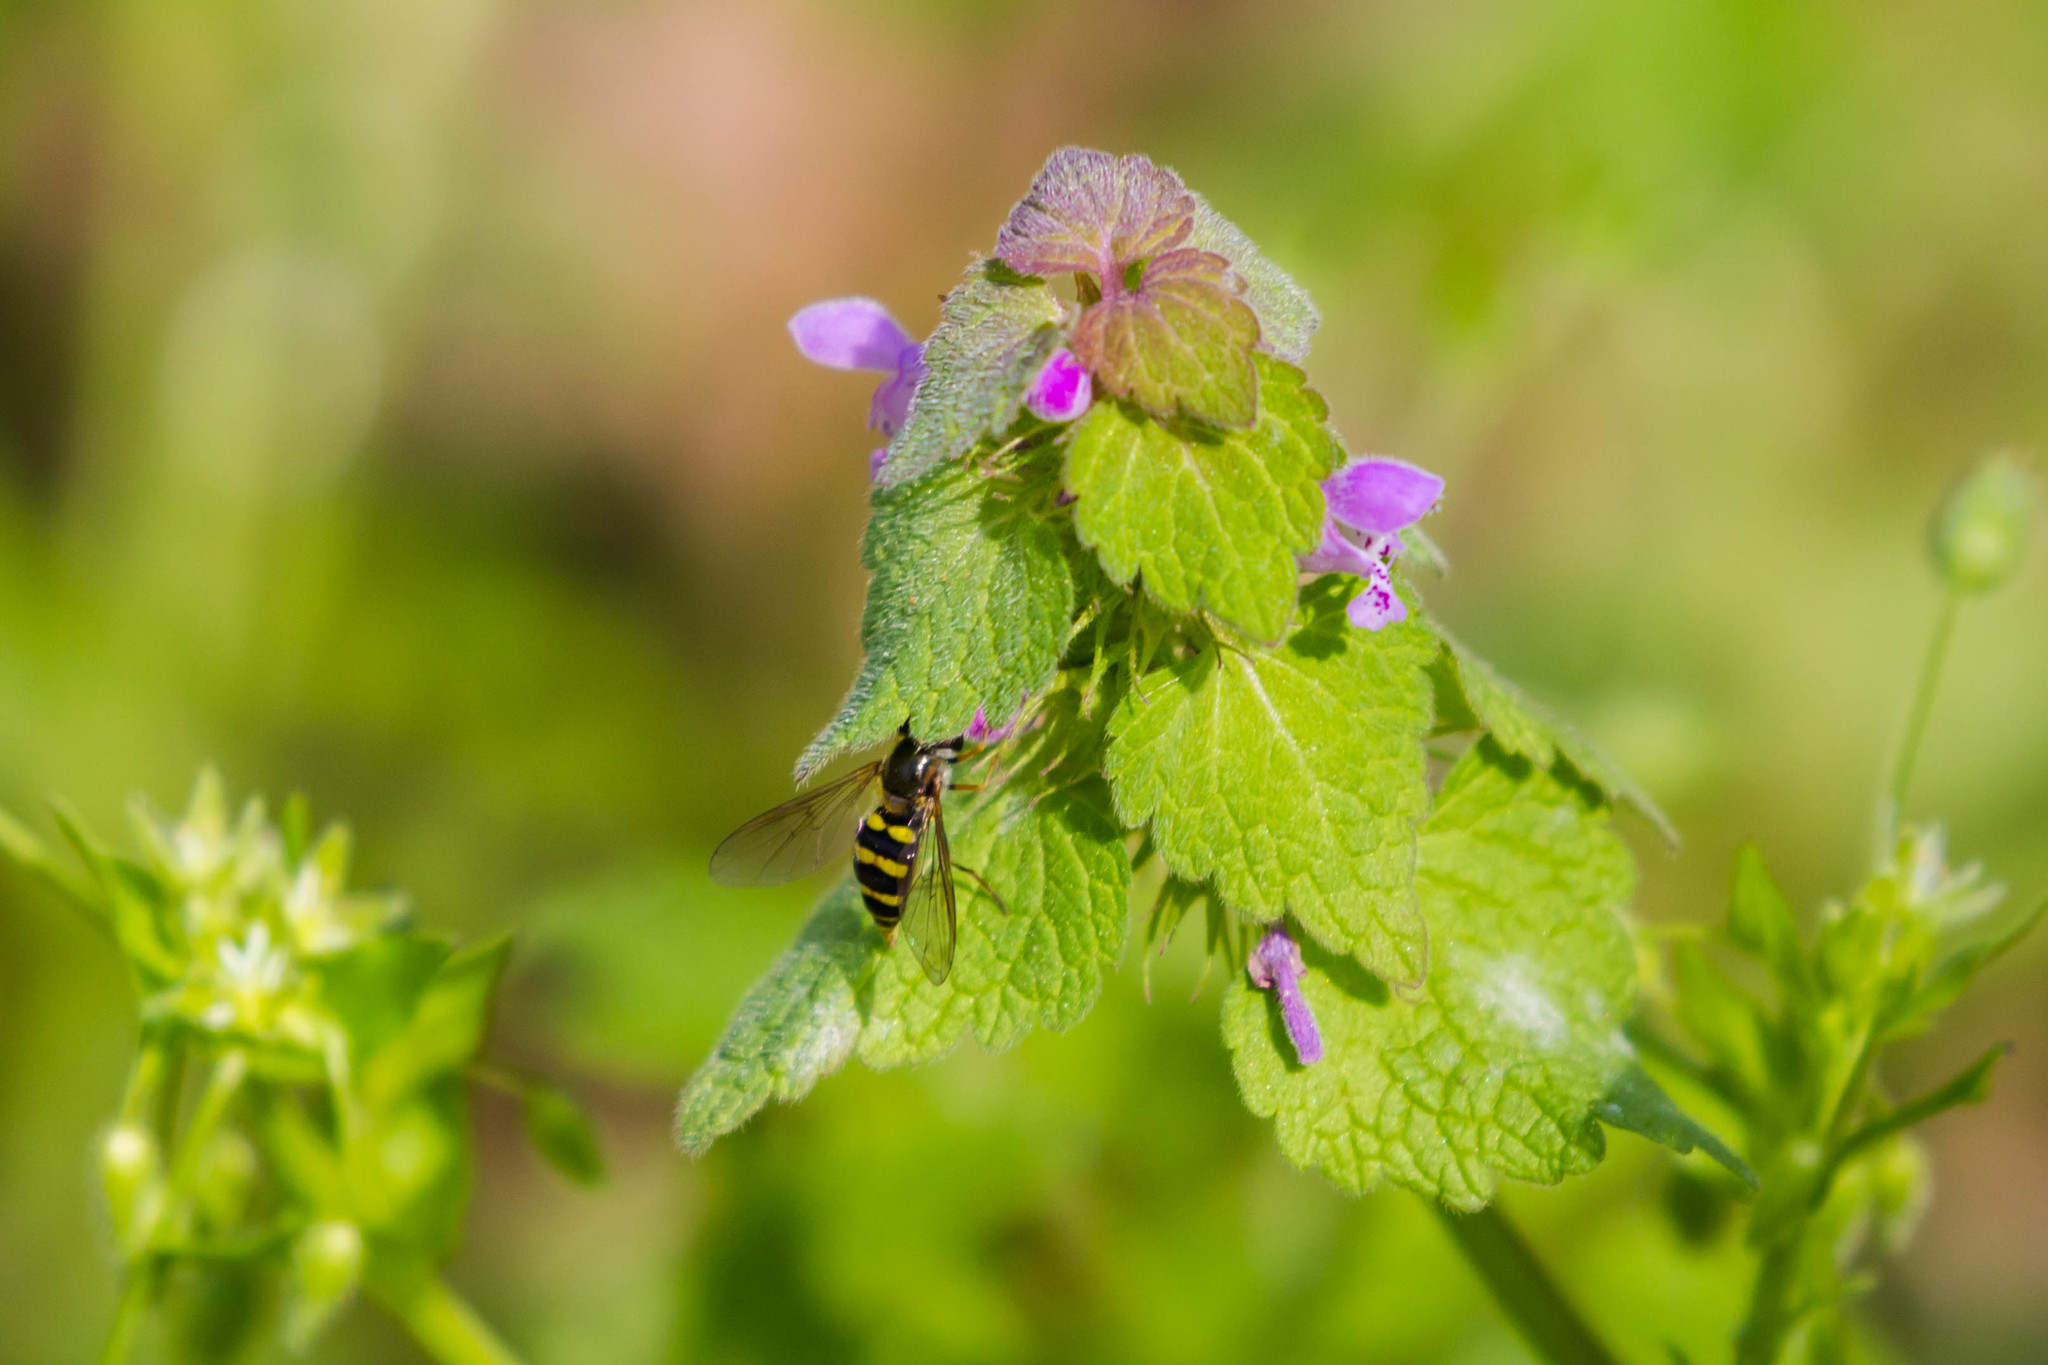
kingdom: Animalia
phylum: Arthropoda
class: Insecta
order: Diptera
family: Syrphidae
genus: Eupeodes
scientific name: Eupeodes
